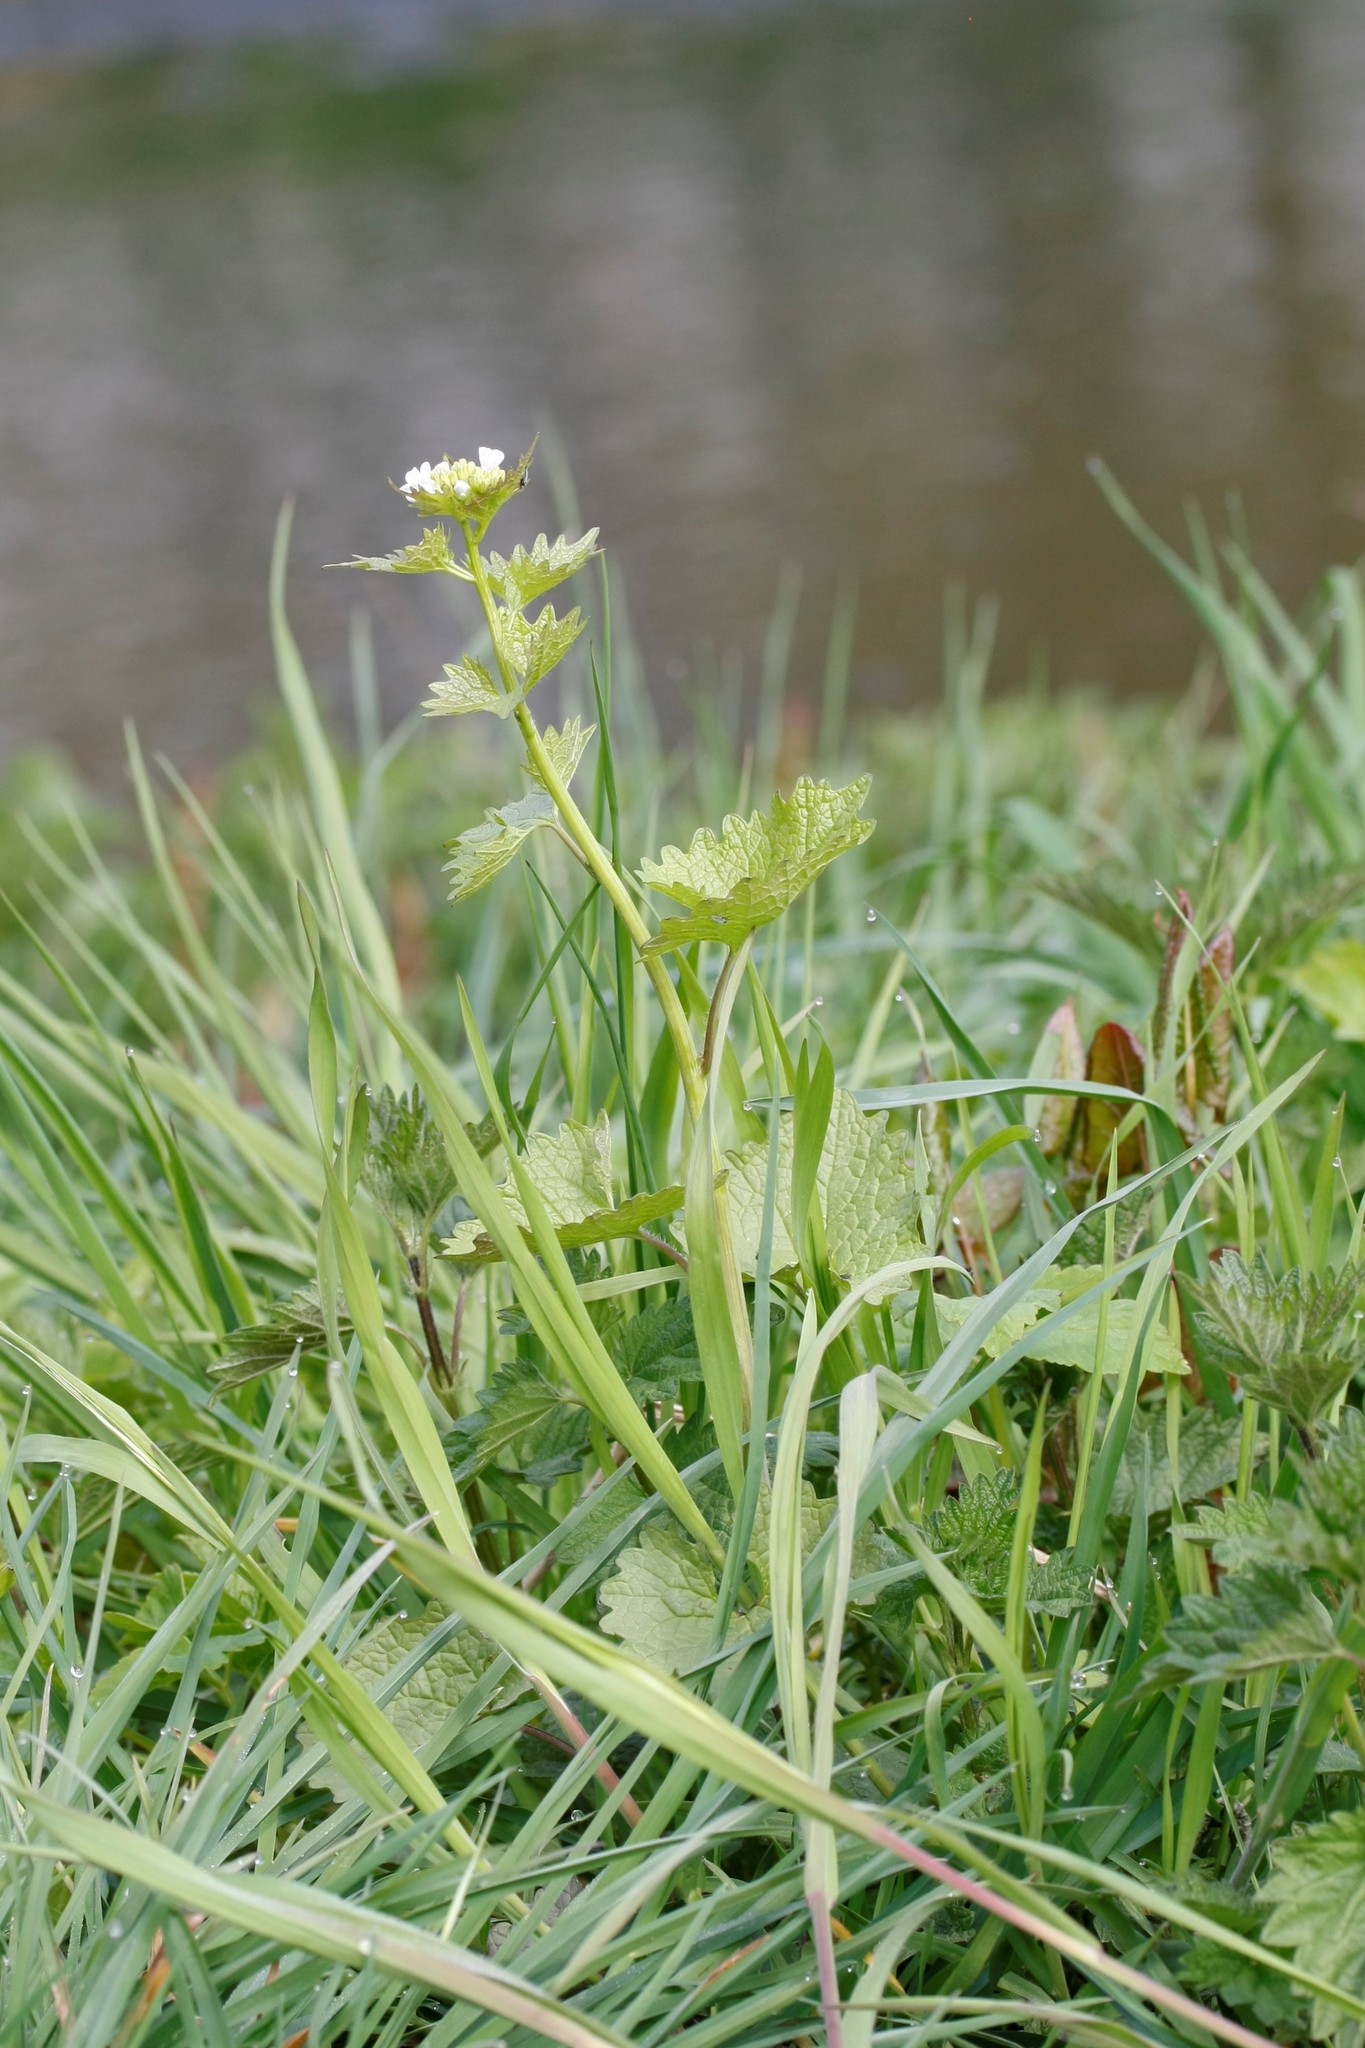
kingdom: Plantae
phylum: Tracheophyta
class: Magnoliopsida
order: Brassicales
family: Brassicaceae
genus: Alliaria
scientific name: Alliaria petiolata
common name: Garlic mustard
